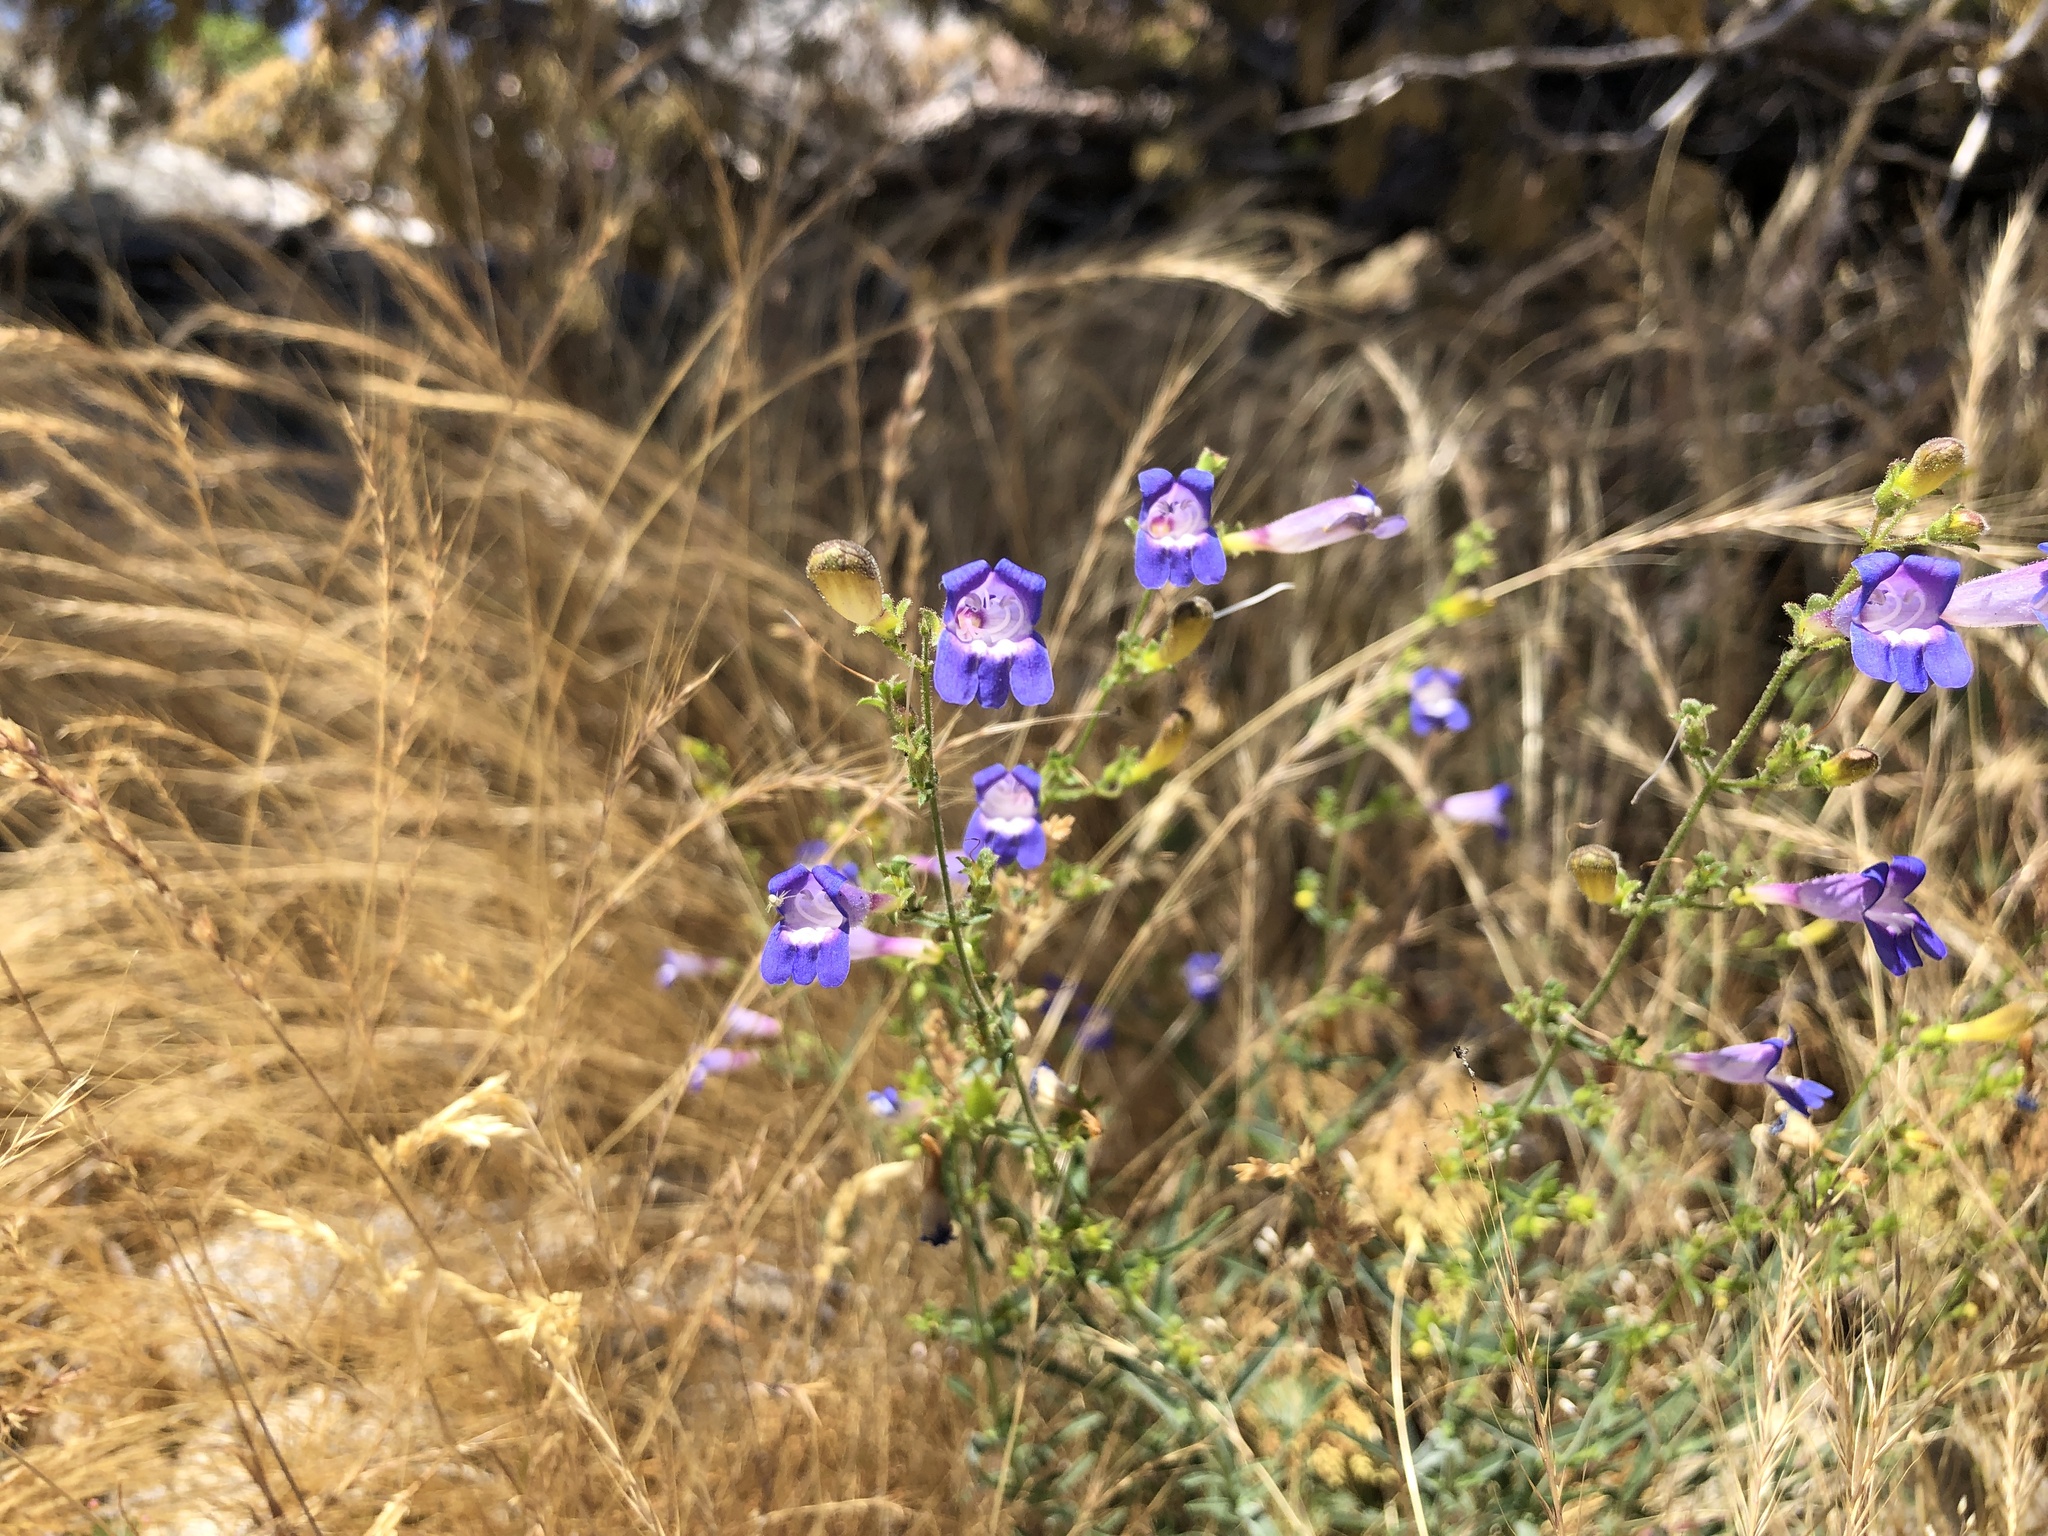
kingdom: Plantae
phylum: Tracheophyta
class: Magnoliopsida
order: Lamiales
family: Plantaginaceae
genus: Penstemon
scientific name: Penstemon laetus
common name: Gay penstemon
